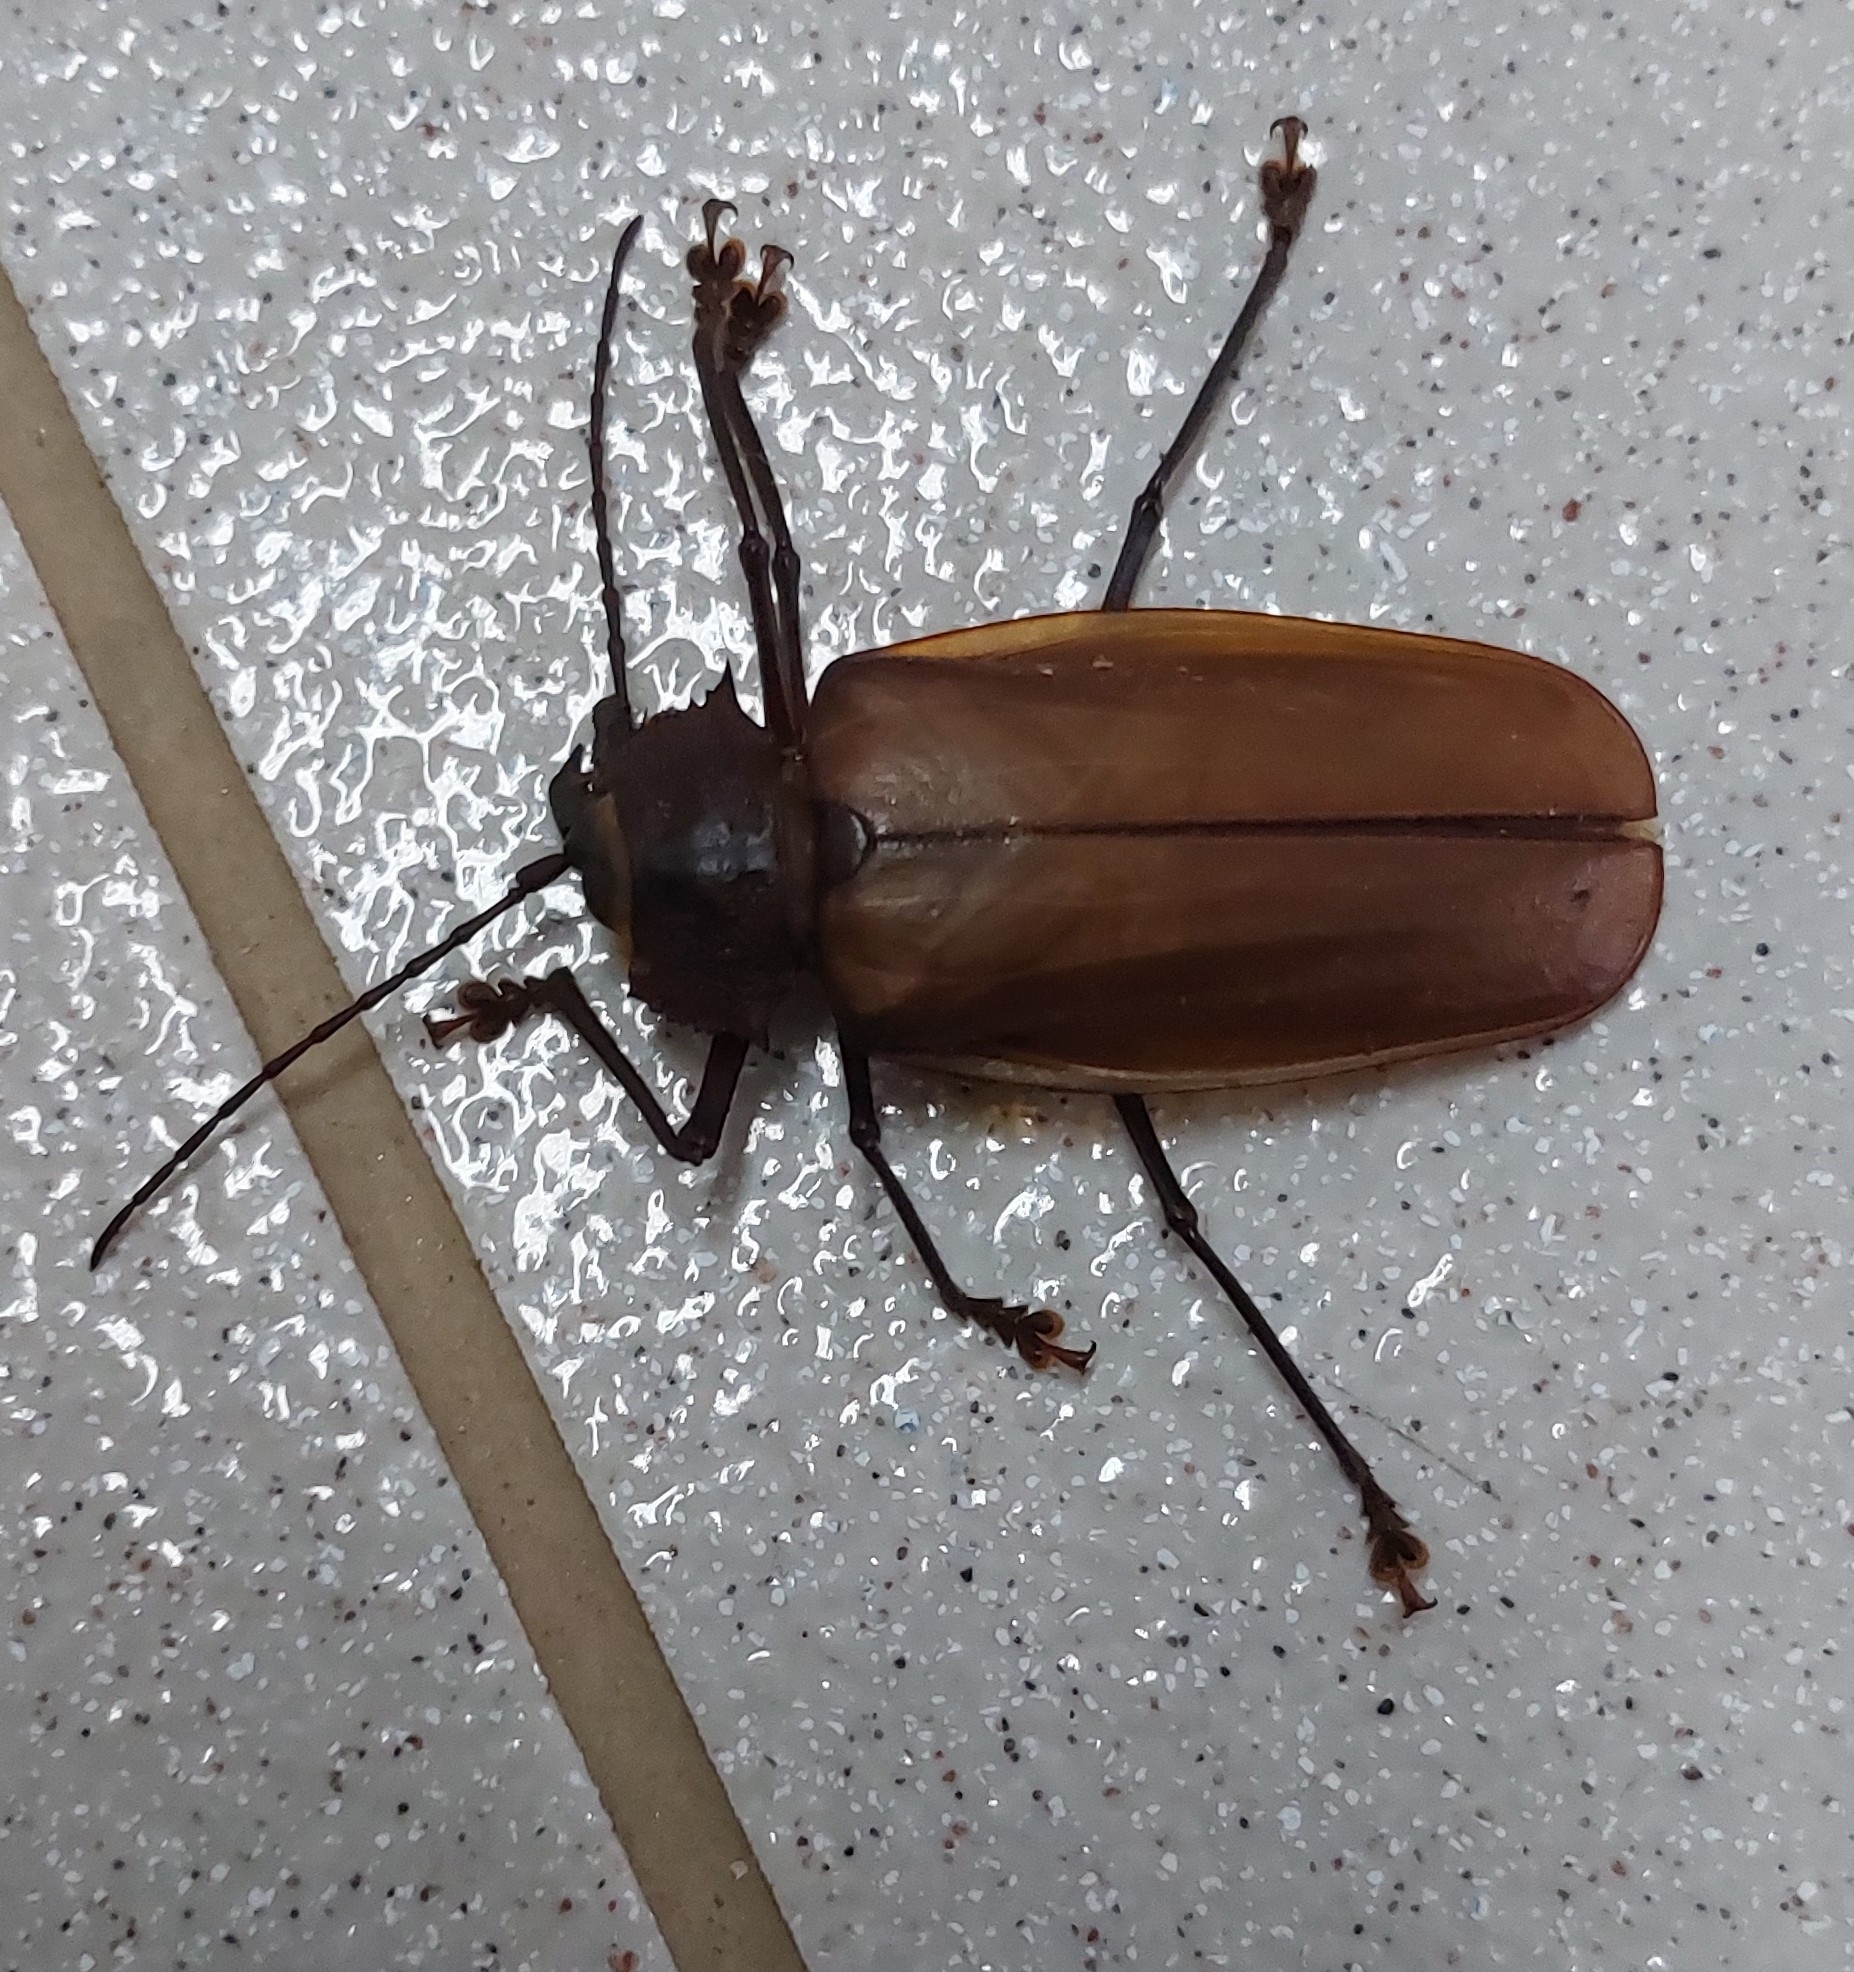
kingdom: Animalia
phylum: Arthropoda
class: Insecta
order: Coleoptera
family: Cerambycidae
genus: Macrodontia
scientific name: Macrodontia flavipennis
